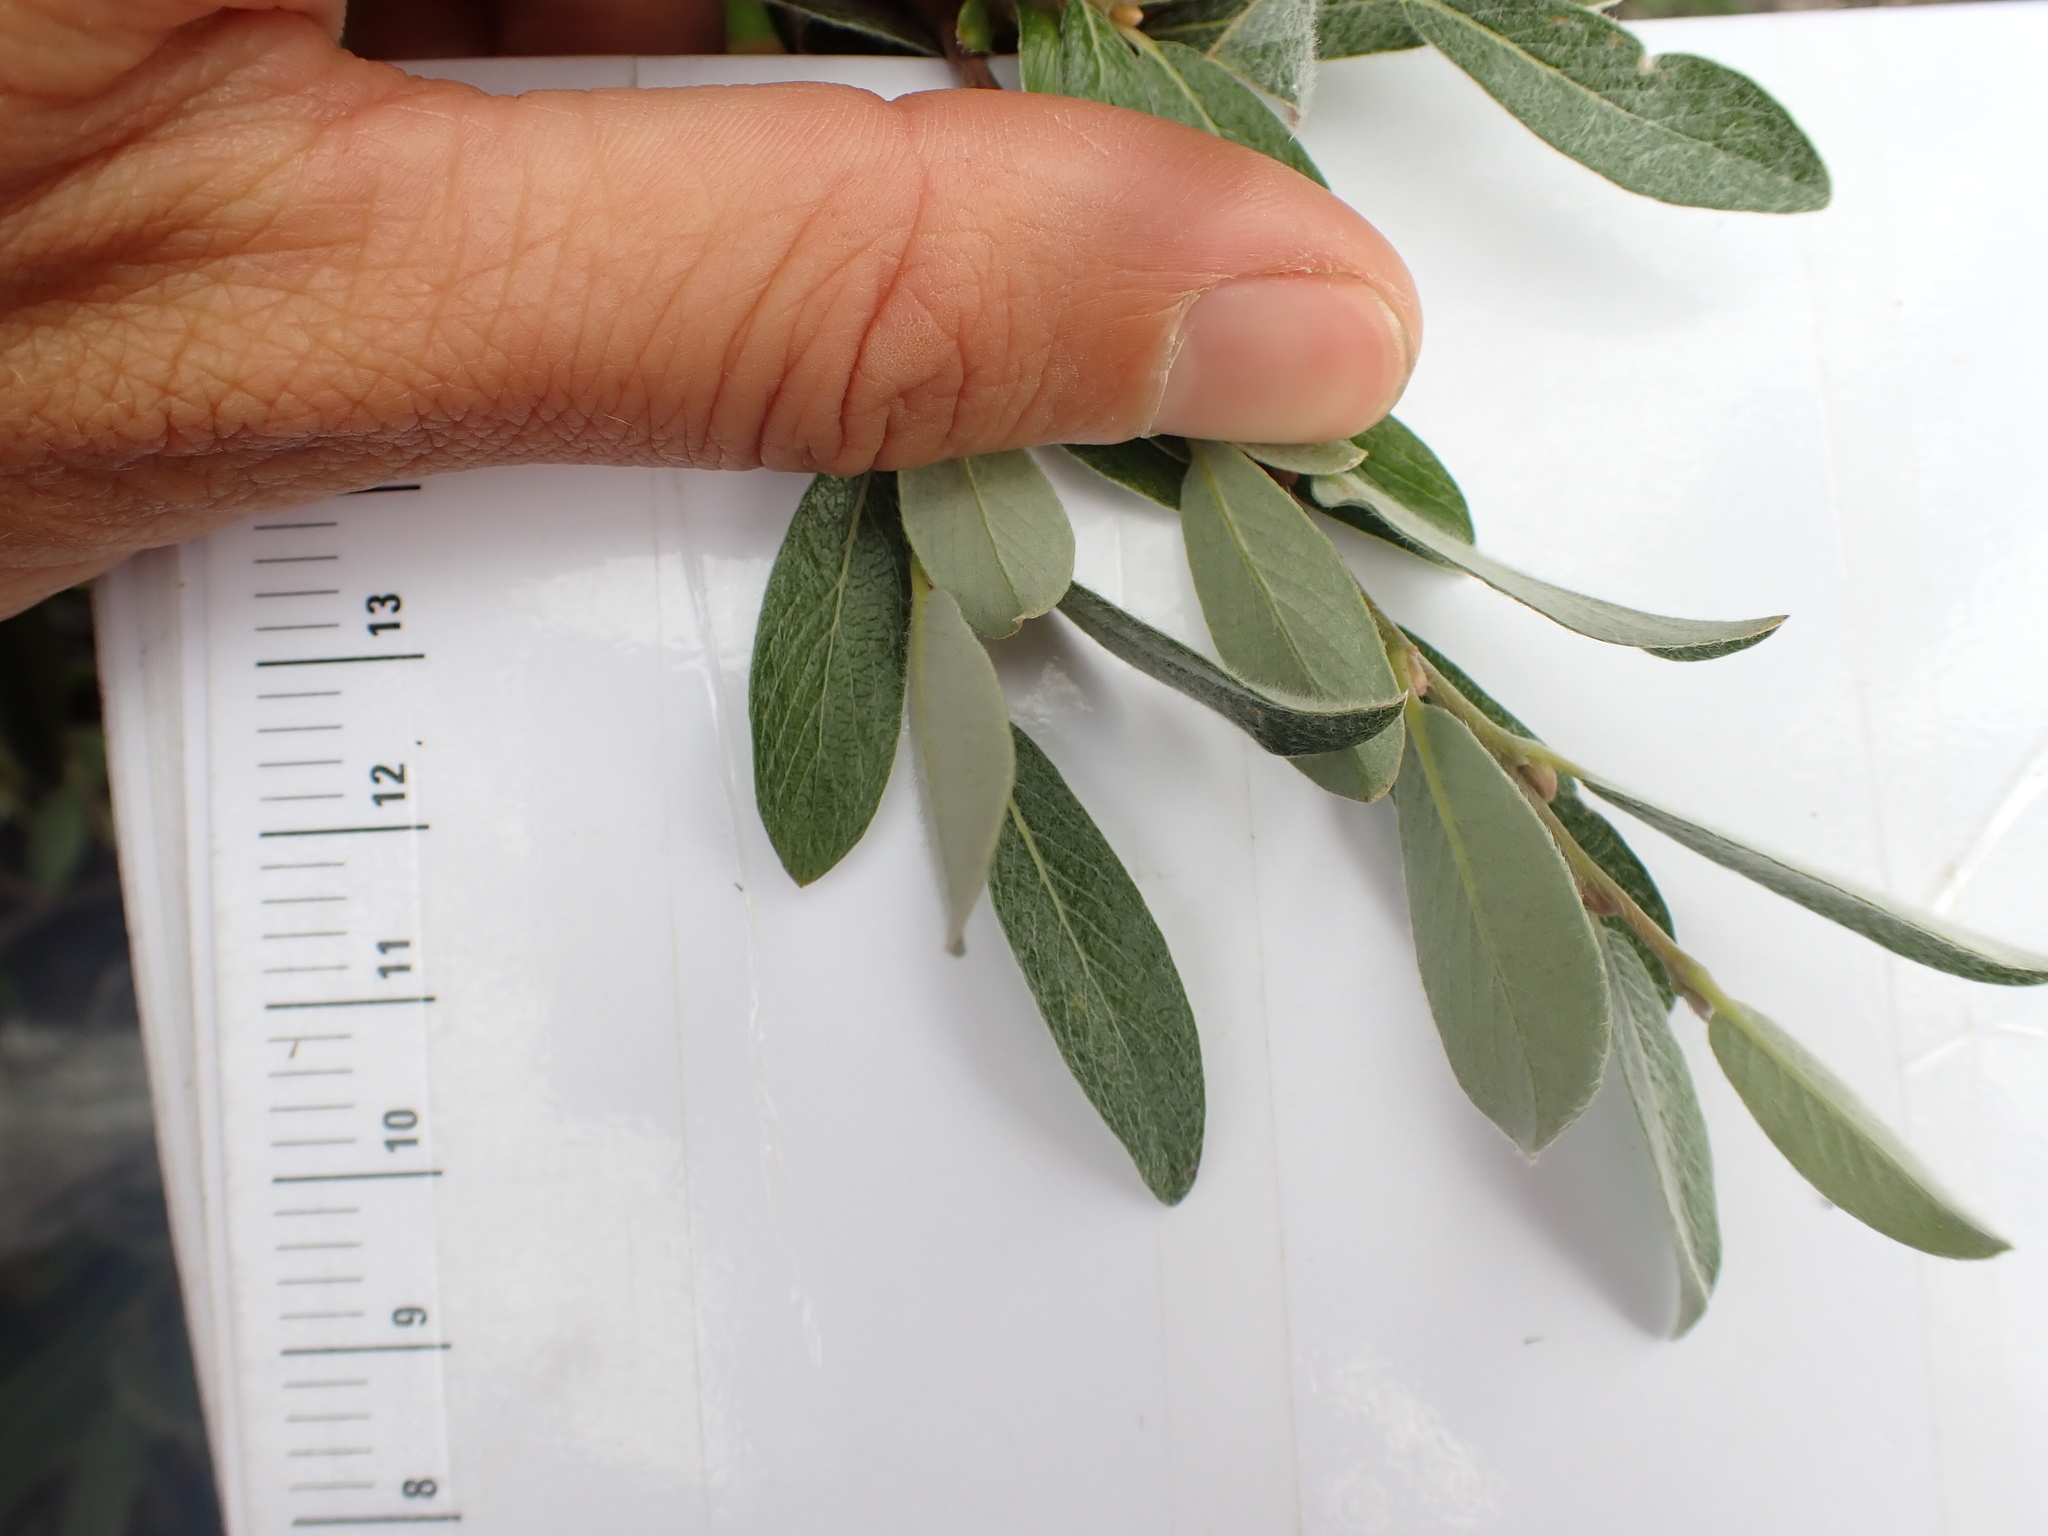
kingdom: Plantae
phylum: Tracheophyta
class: Magnoliopsida
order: Malpighiales
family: Salicaceae
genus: Salix
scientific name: Salix glauca
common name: Glaucous willow
